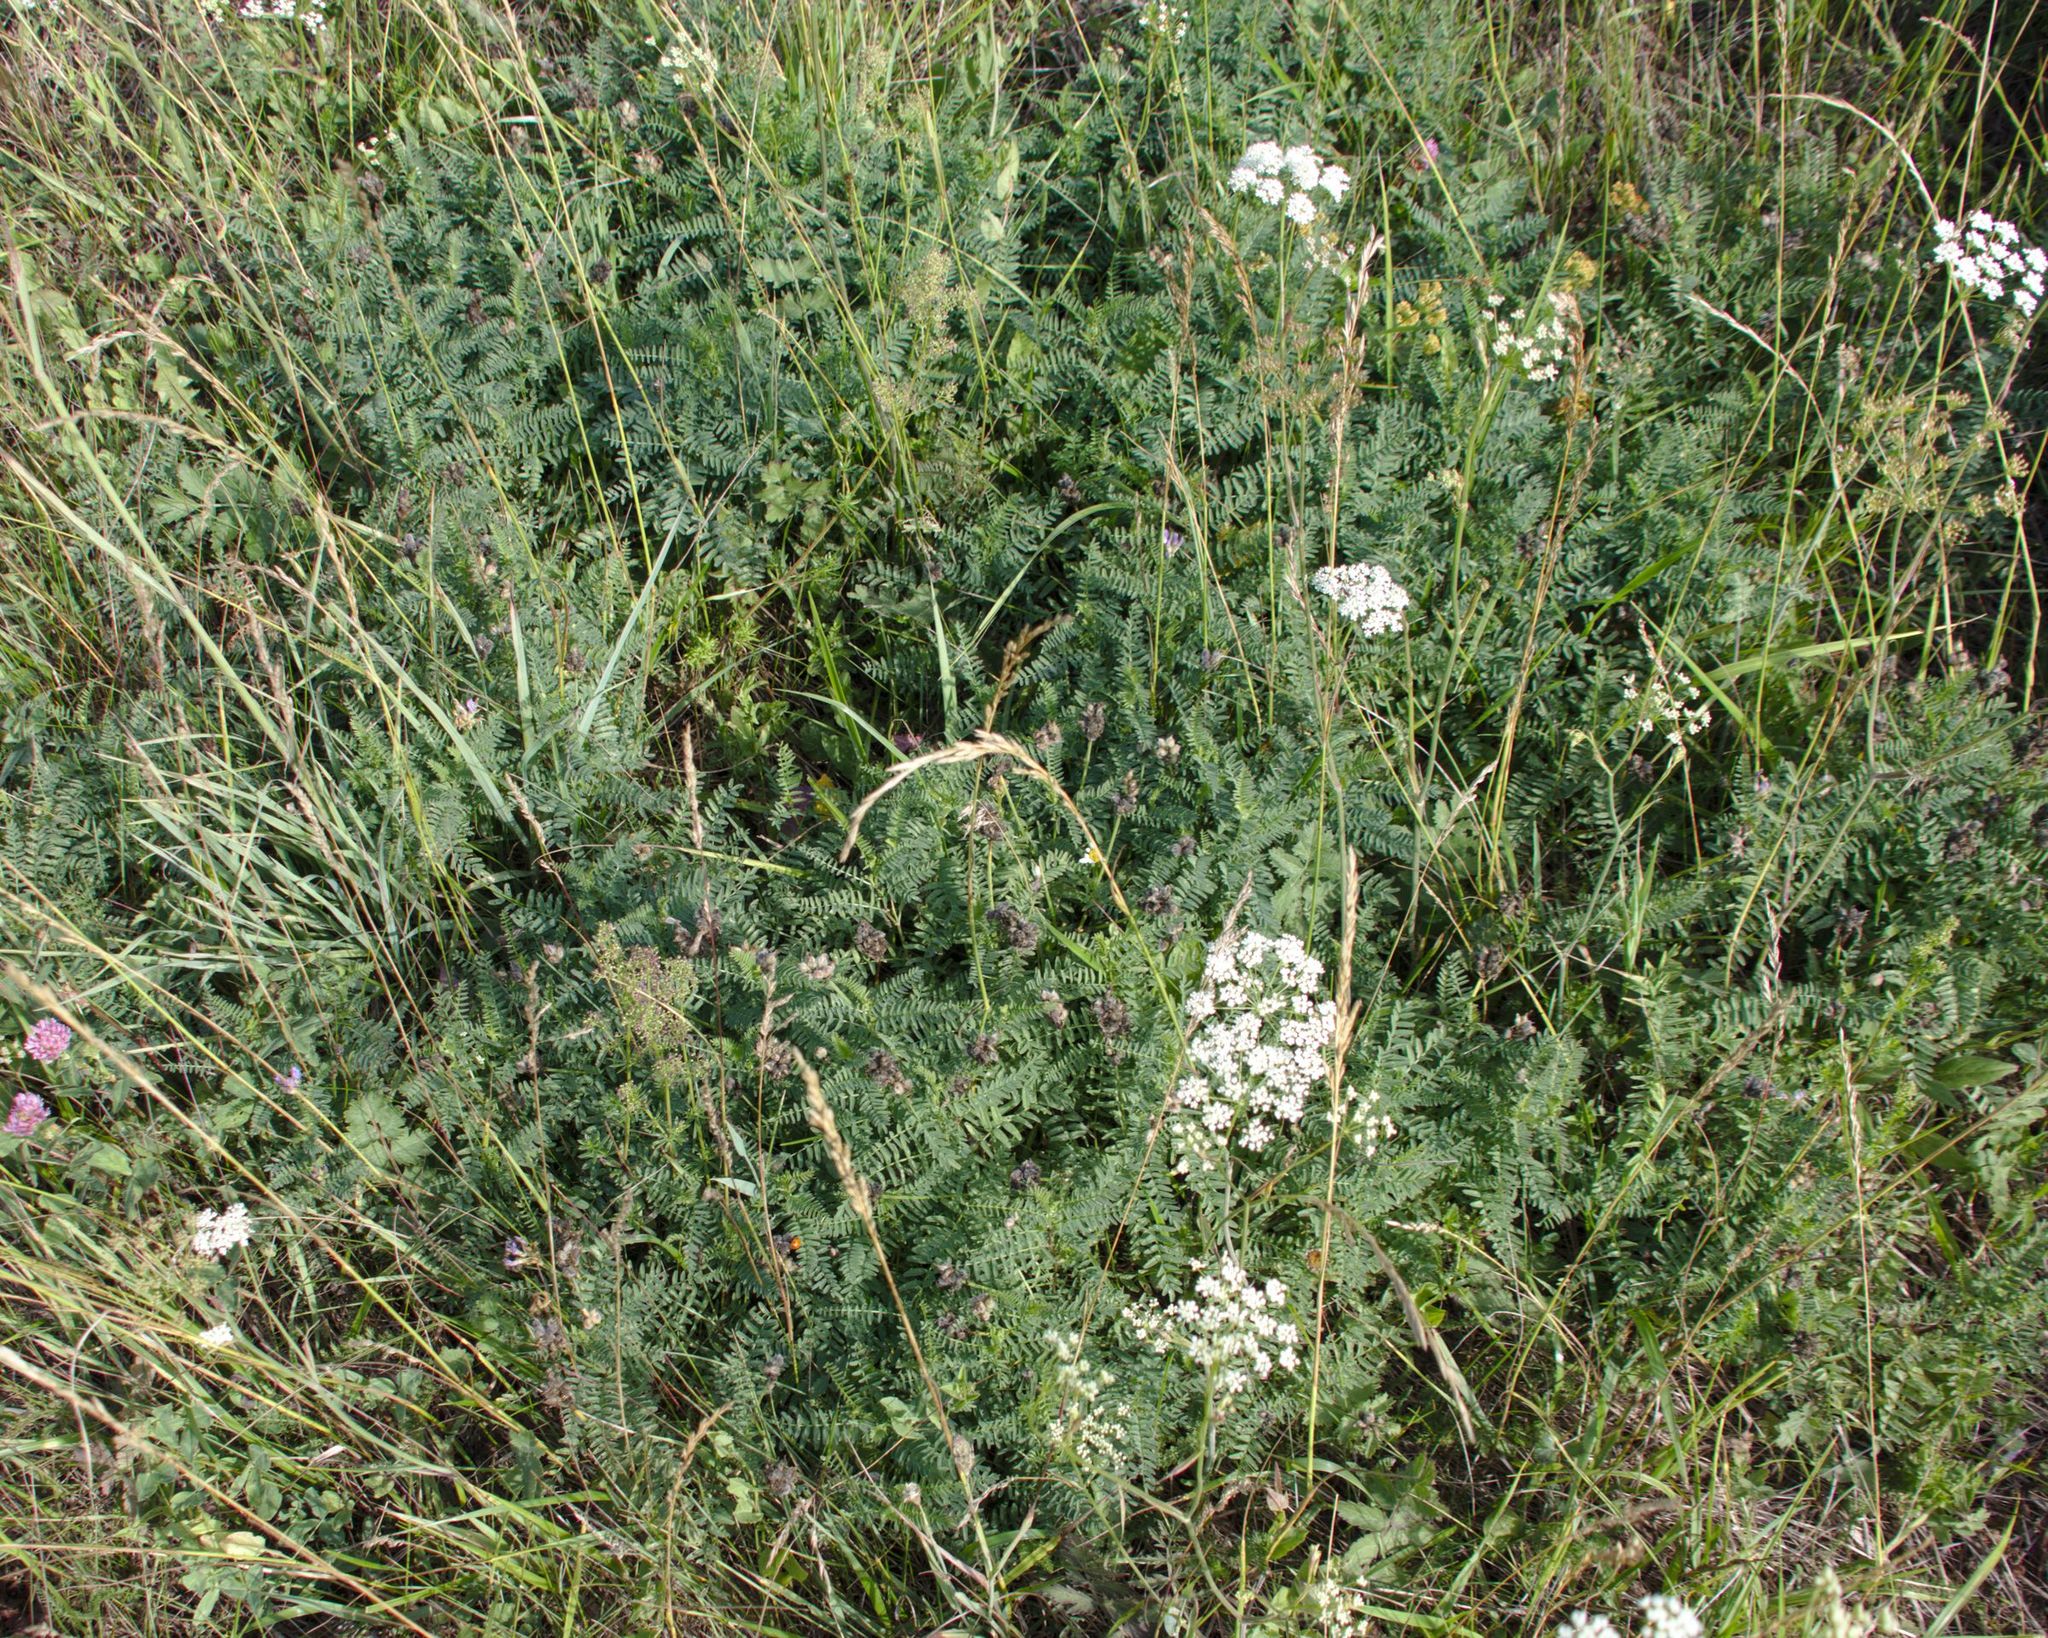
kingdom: Plantae
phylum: Tracheophyta
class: Magnoliopsida
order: Fabales
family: Fabaceae
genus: Astragalus
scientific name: Astragalus danicus
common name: Purple milk-vetch
